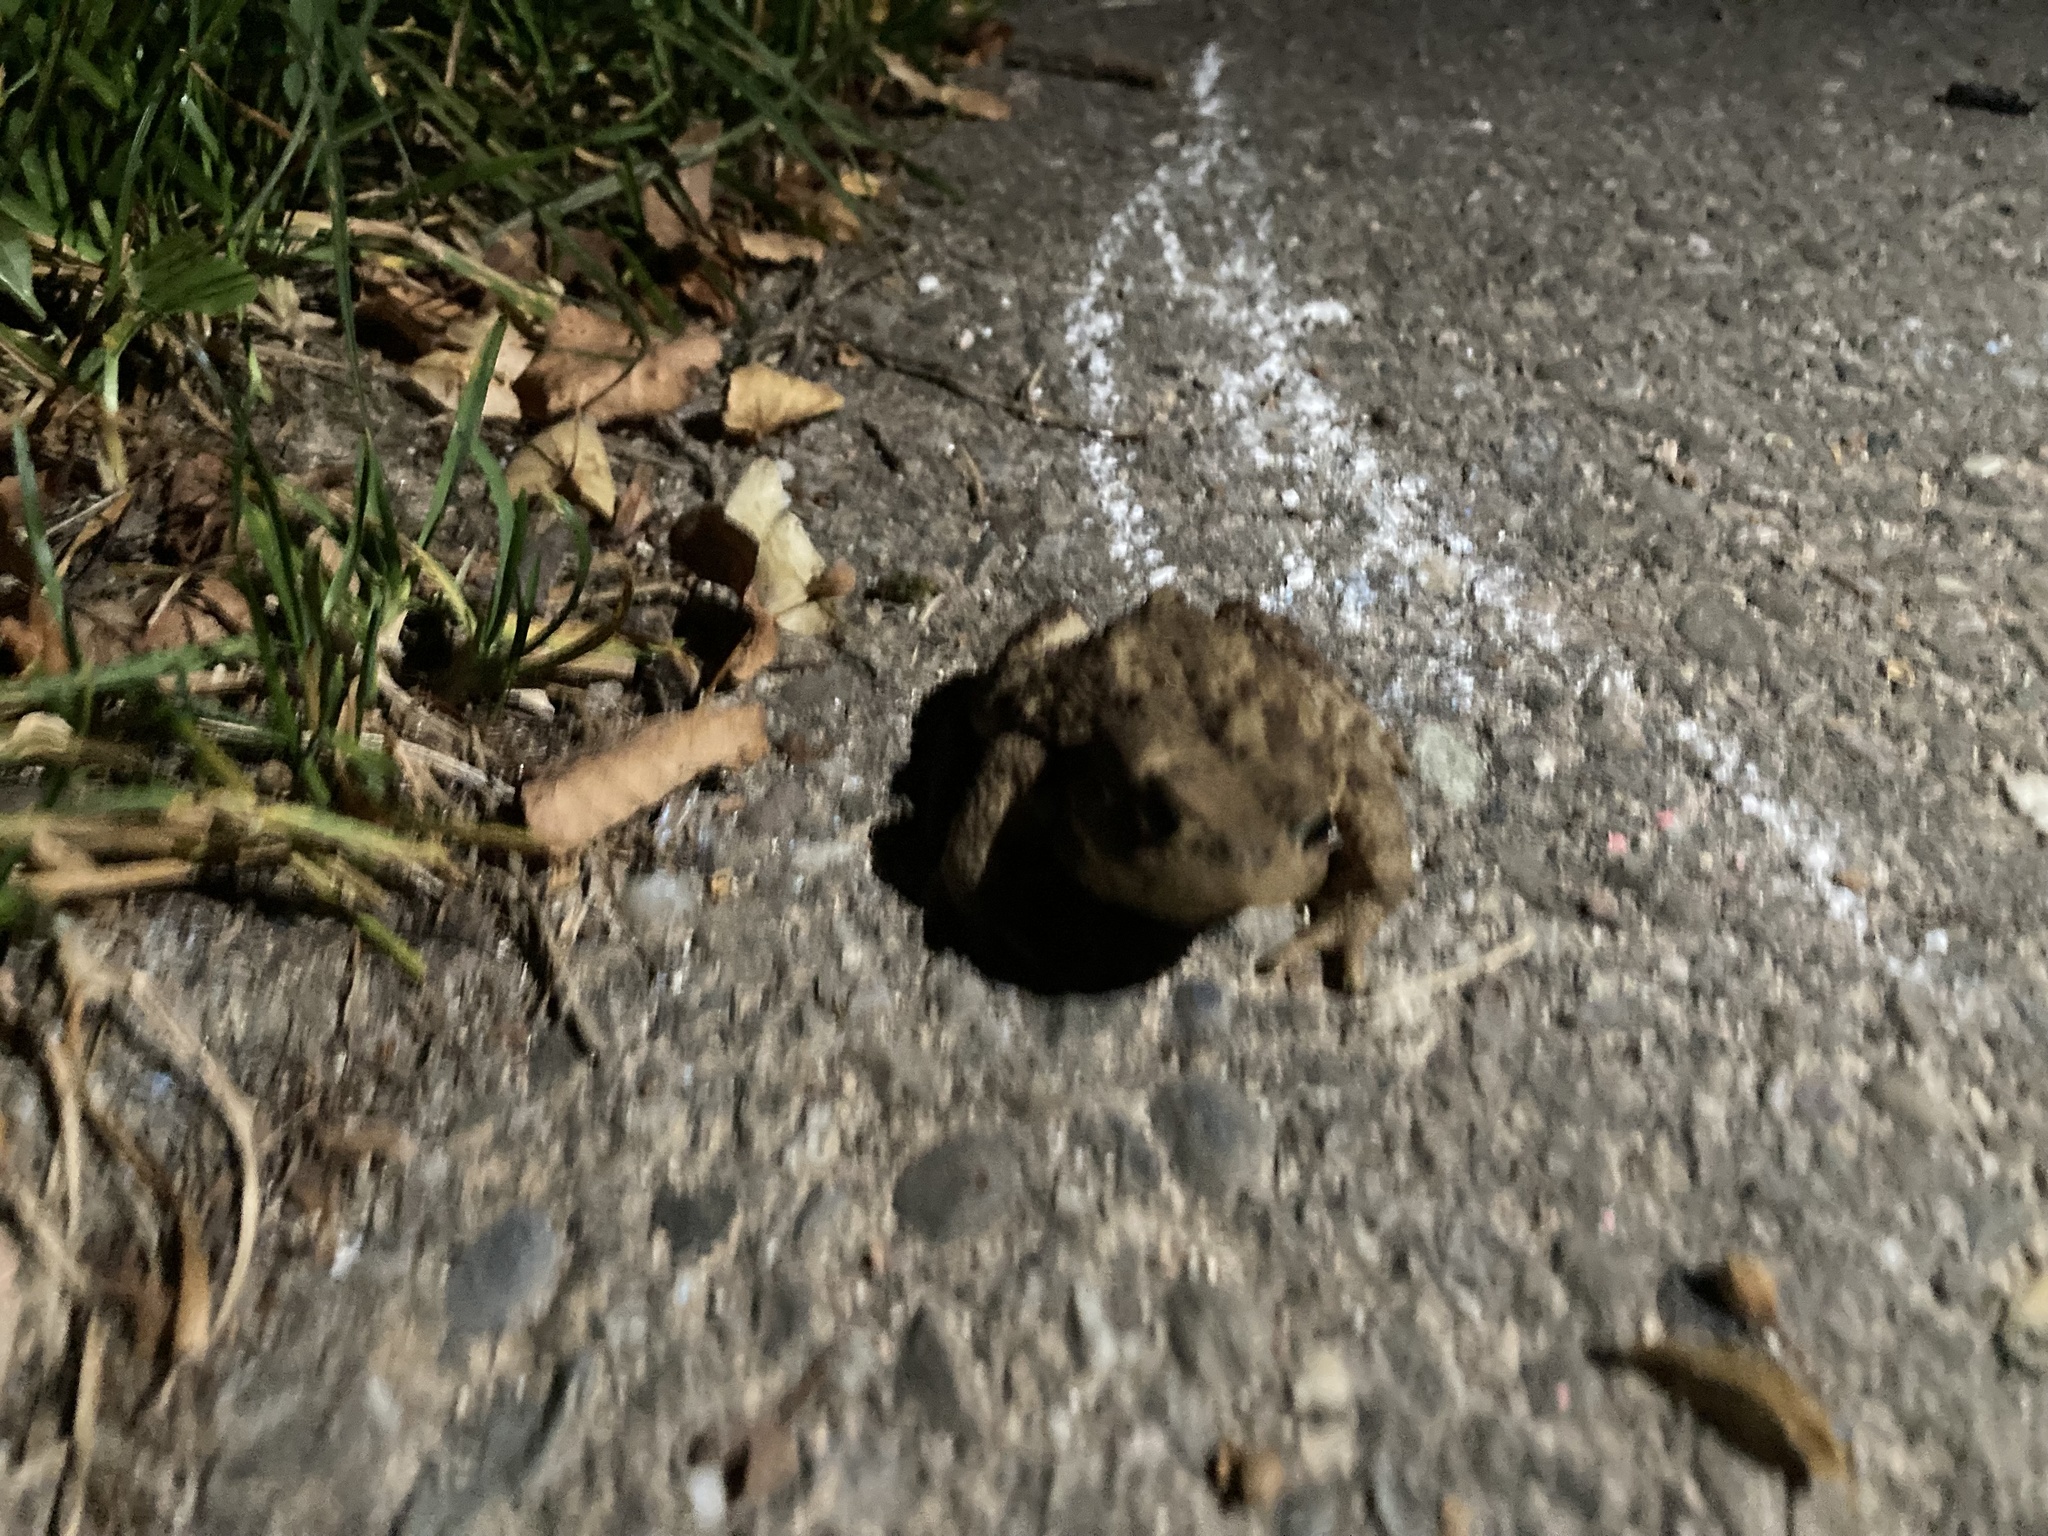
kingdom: Animalia
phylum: Chordata
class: Amphibia
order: Anura
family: Bufonidae
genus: Bufo
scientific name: Bufo bufo
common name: Common toad
